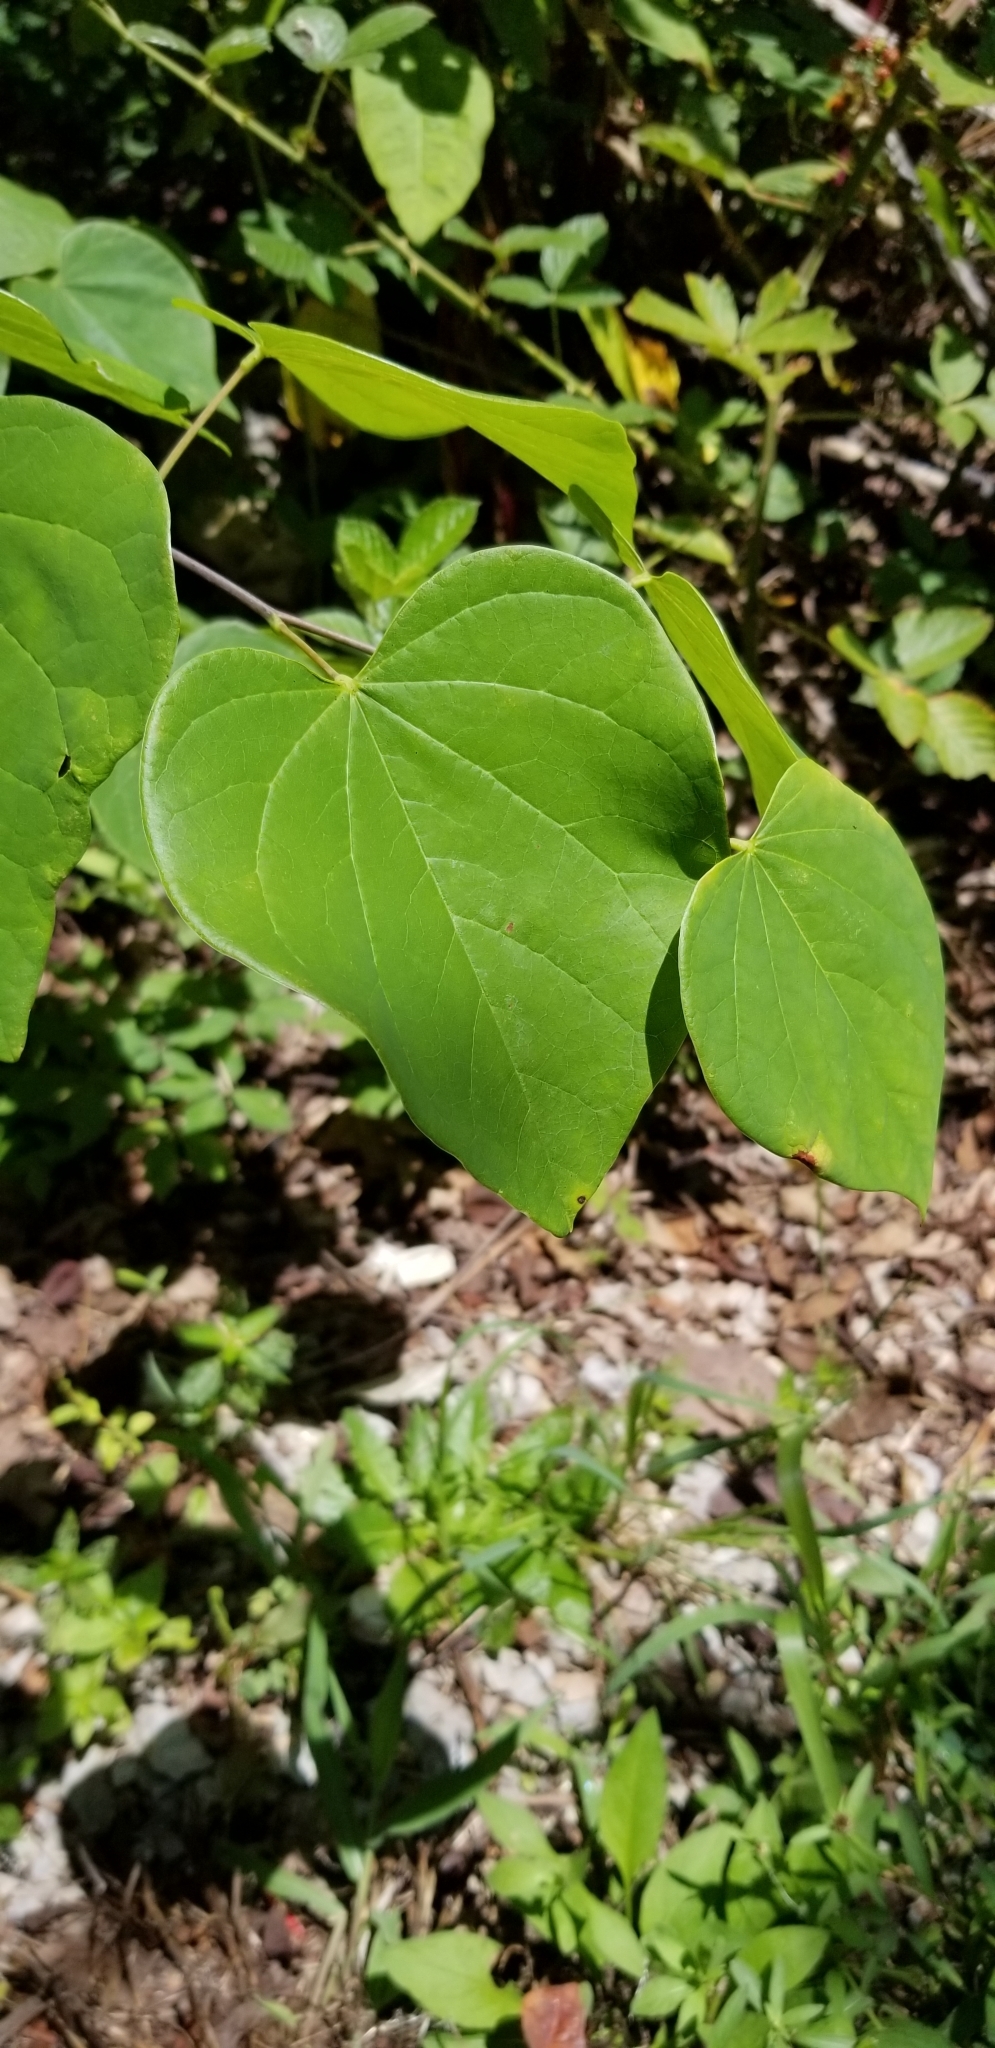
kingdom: Plantae
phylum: Tracheophyta
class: Magnoliopsida
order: Fabales
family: Fabaceae
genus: Cercis
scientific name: Cercis canadensis
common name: Eastern redbud
